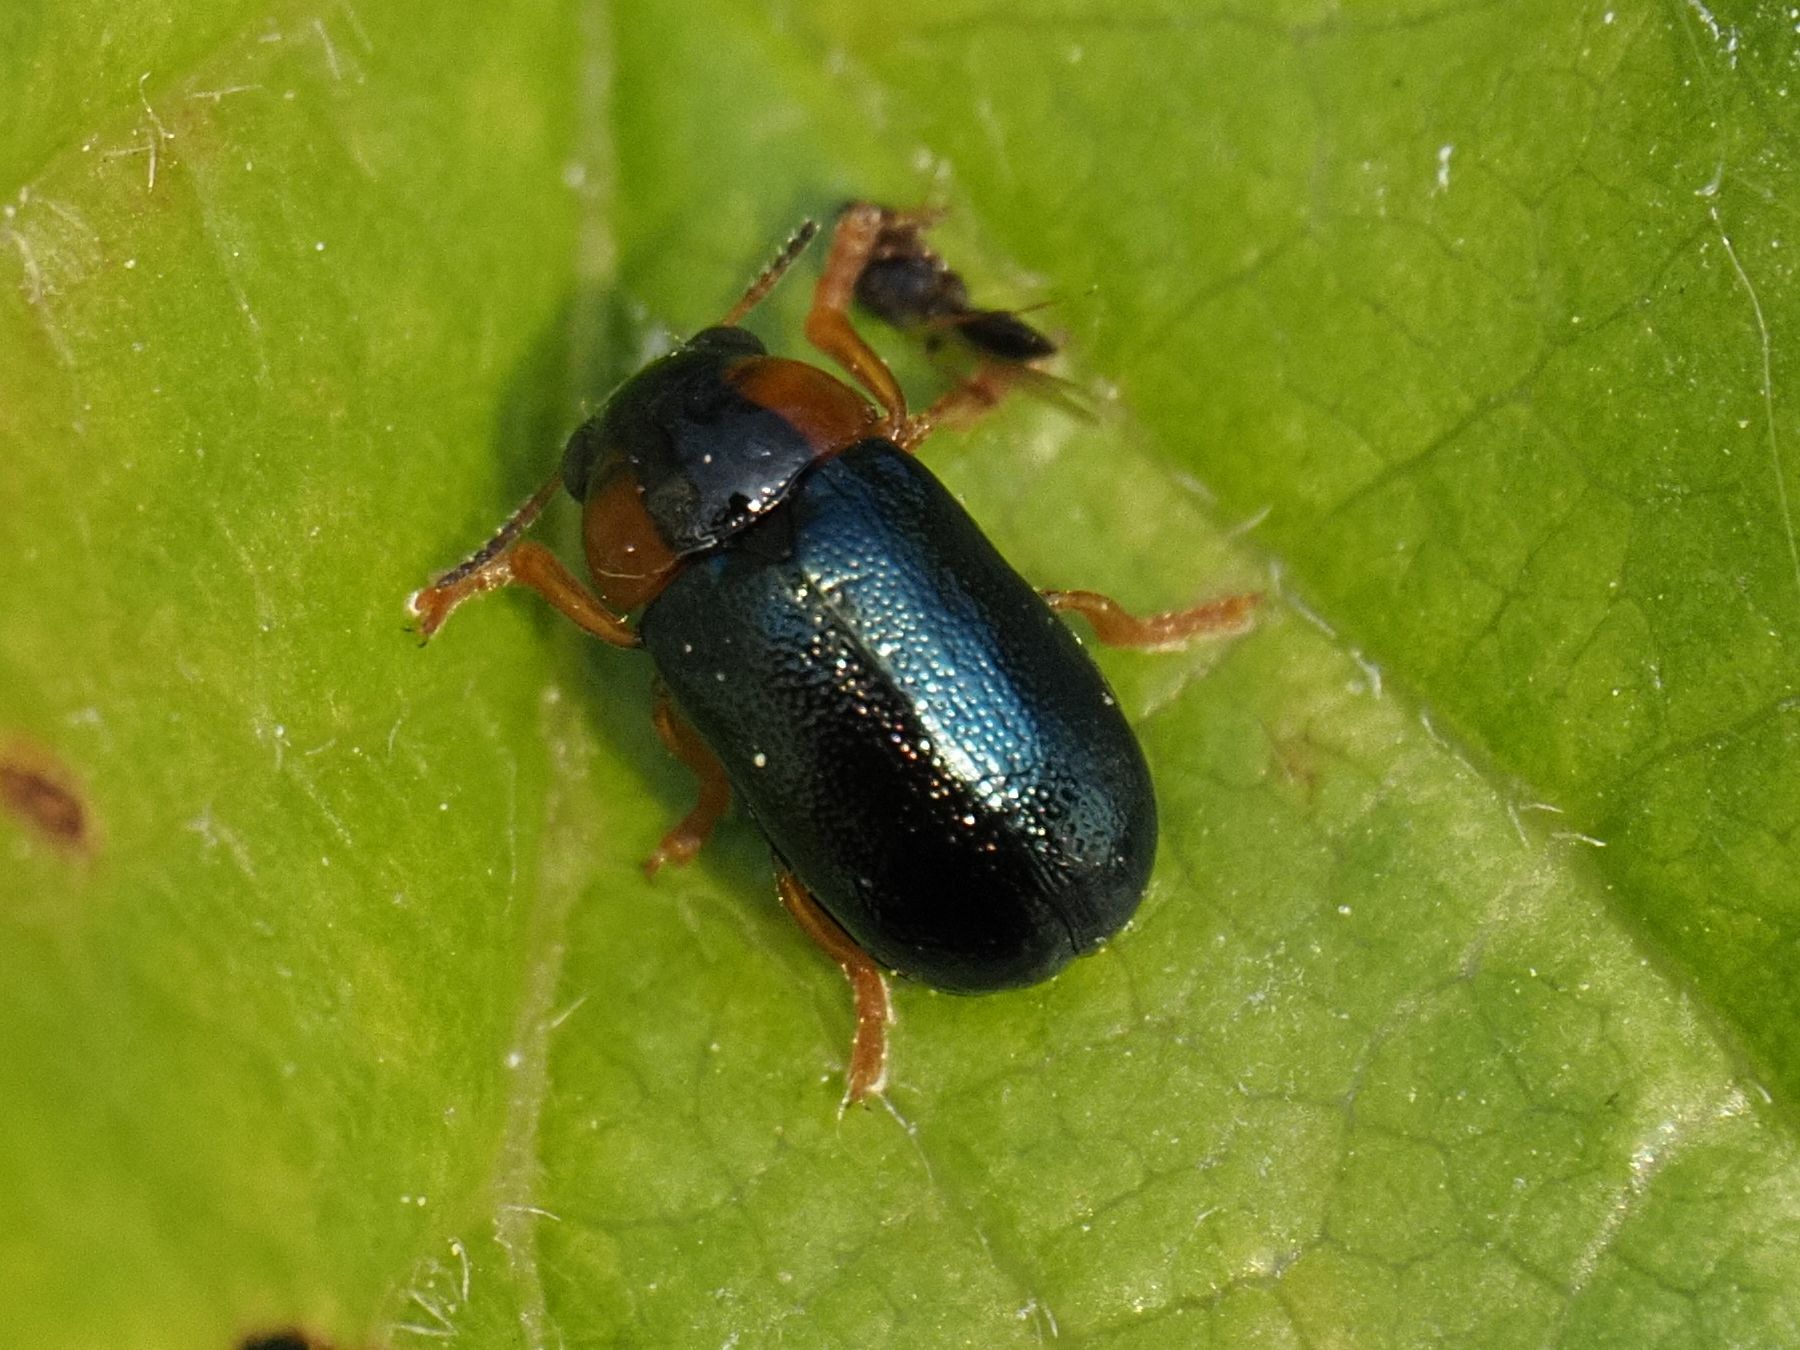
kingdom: Animalia
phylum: Arthropoda
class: Insecta
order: Coleoptera
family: Chrysomelidae
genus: Smaragdina
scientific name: Smaragdina aurita
